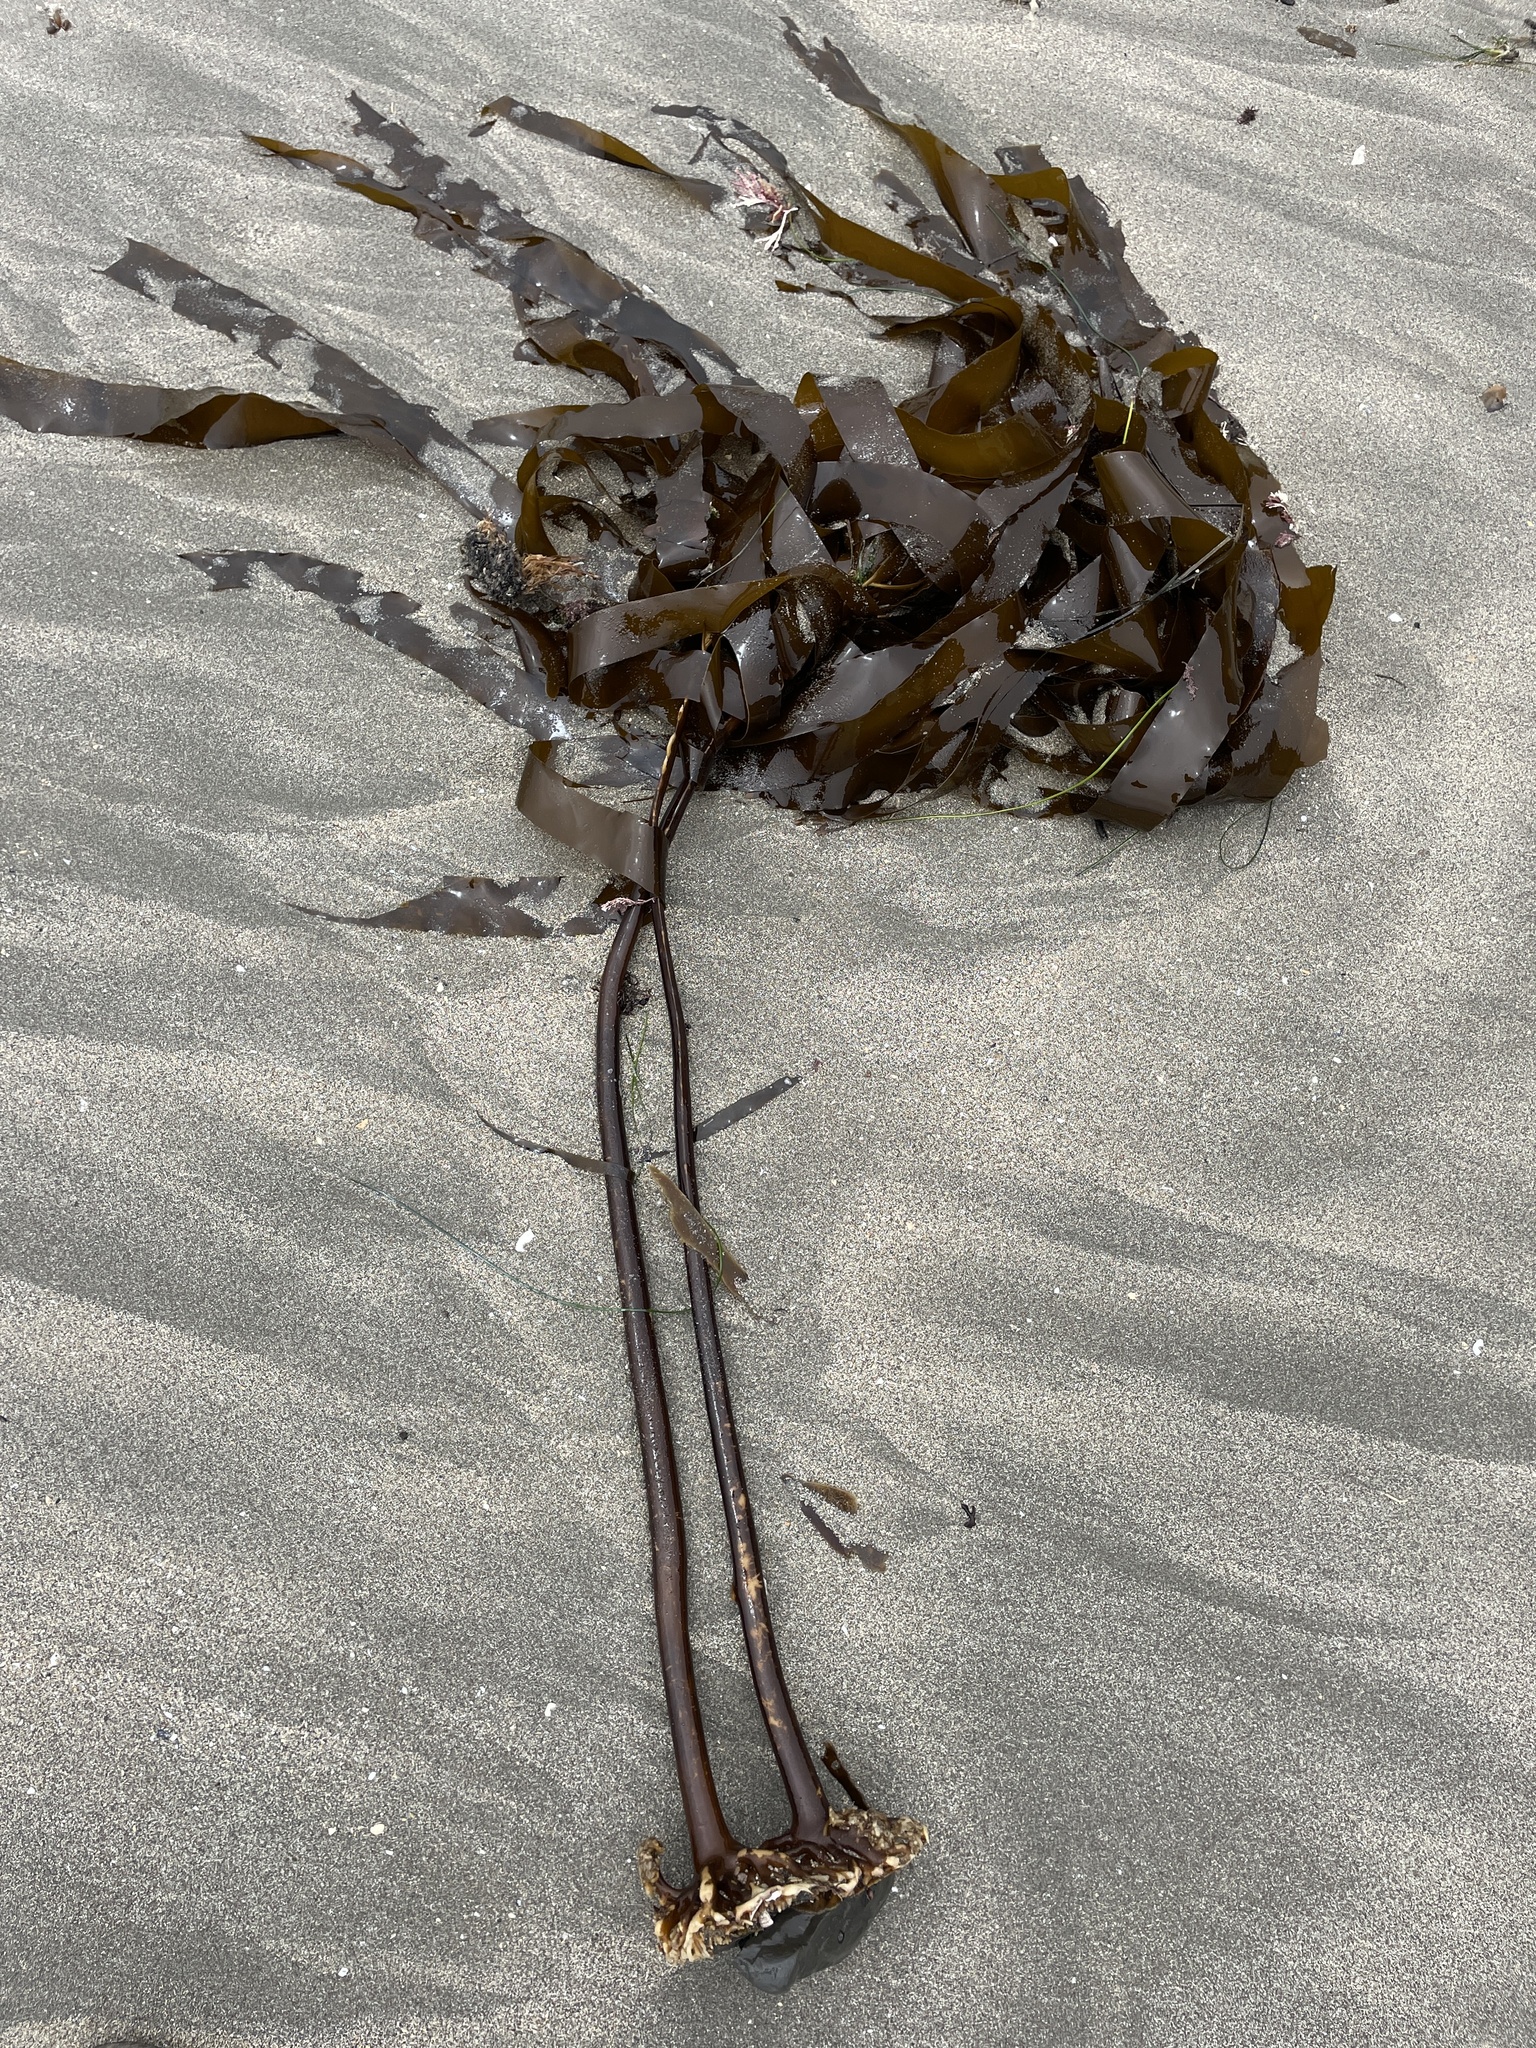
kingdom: Chromista
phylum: Ochrophyta
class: Phaeophyceae
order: Laminariales
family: Alariaceae
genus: Pterygophora
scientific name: Pterygophora californica
